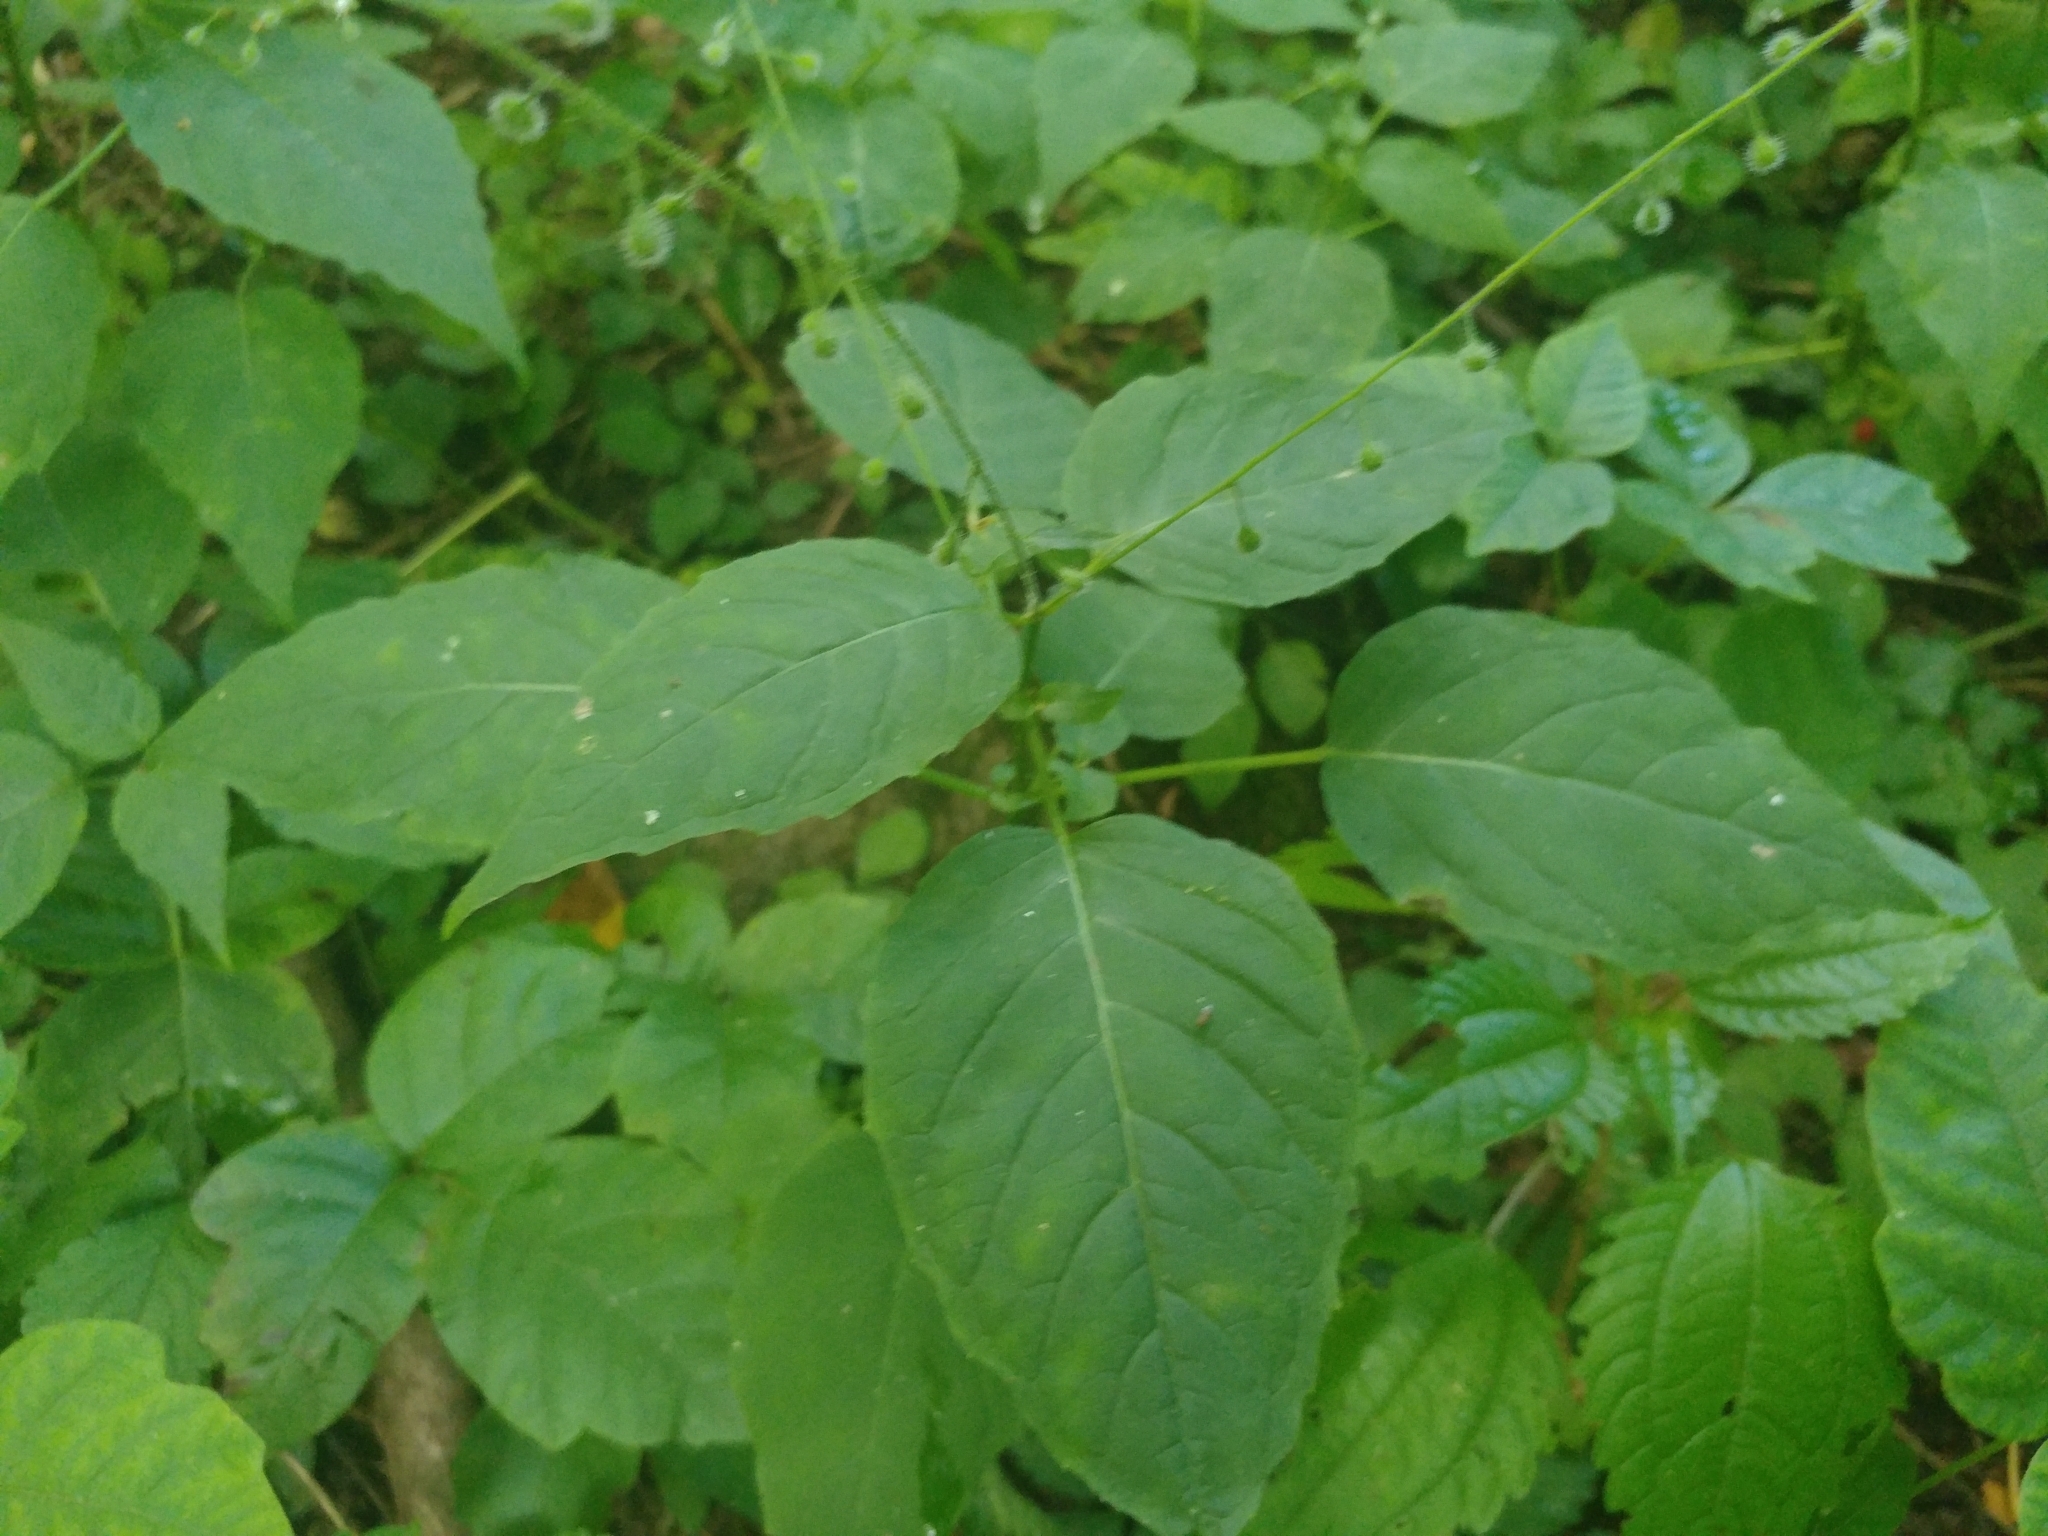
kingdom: Plantae
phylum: Tracheophyta
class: Magnoliopsida
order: Myrtales
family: Onagraceae
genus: Circaea
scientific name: Circaea canadensis
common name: Broad-leaved enchanter's nightshade
